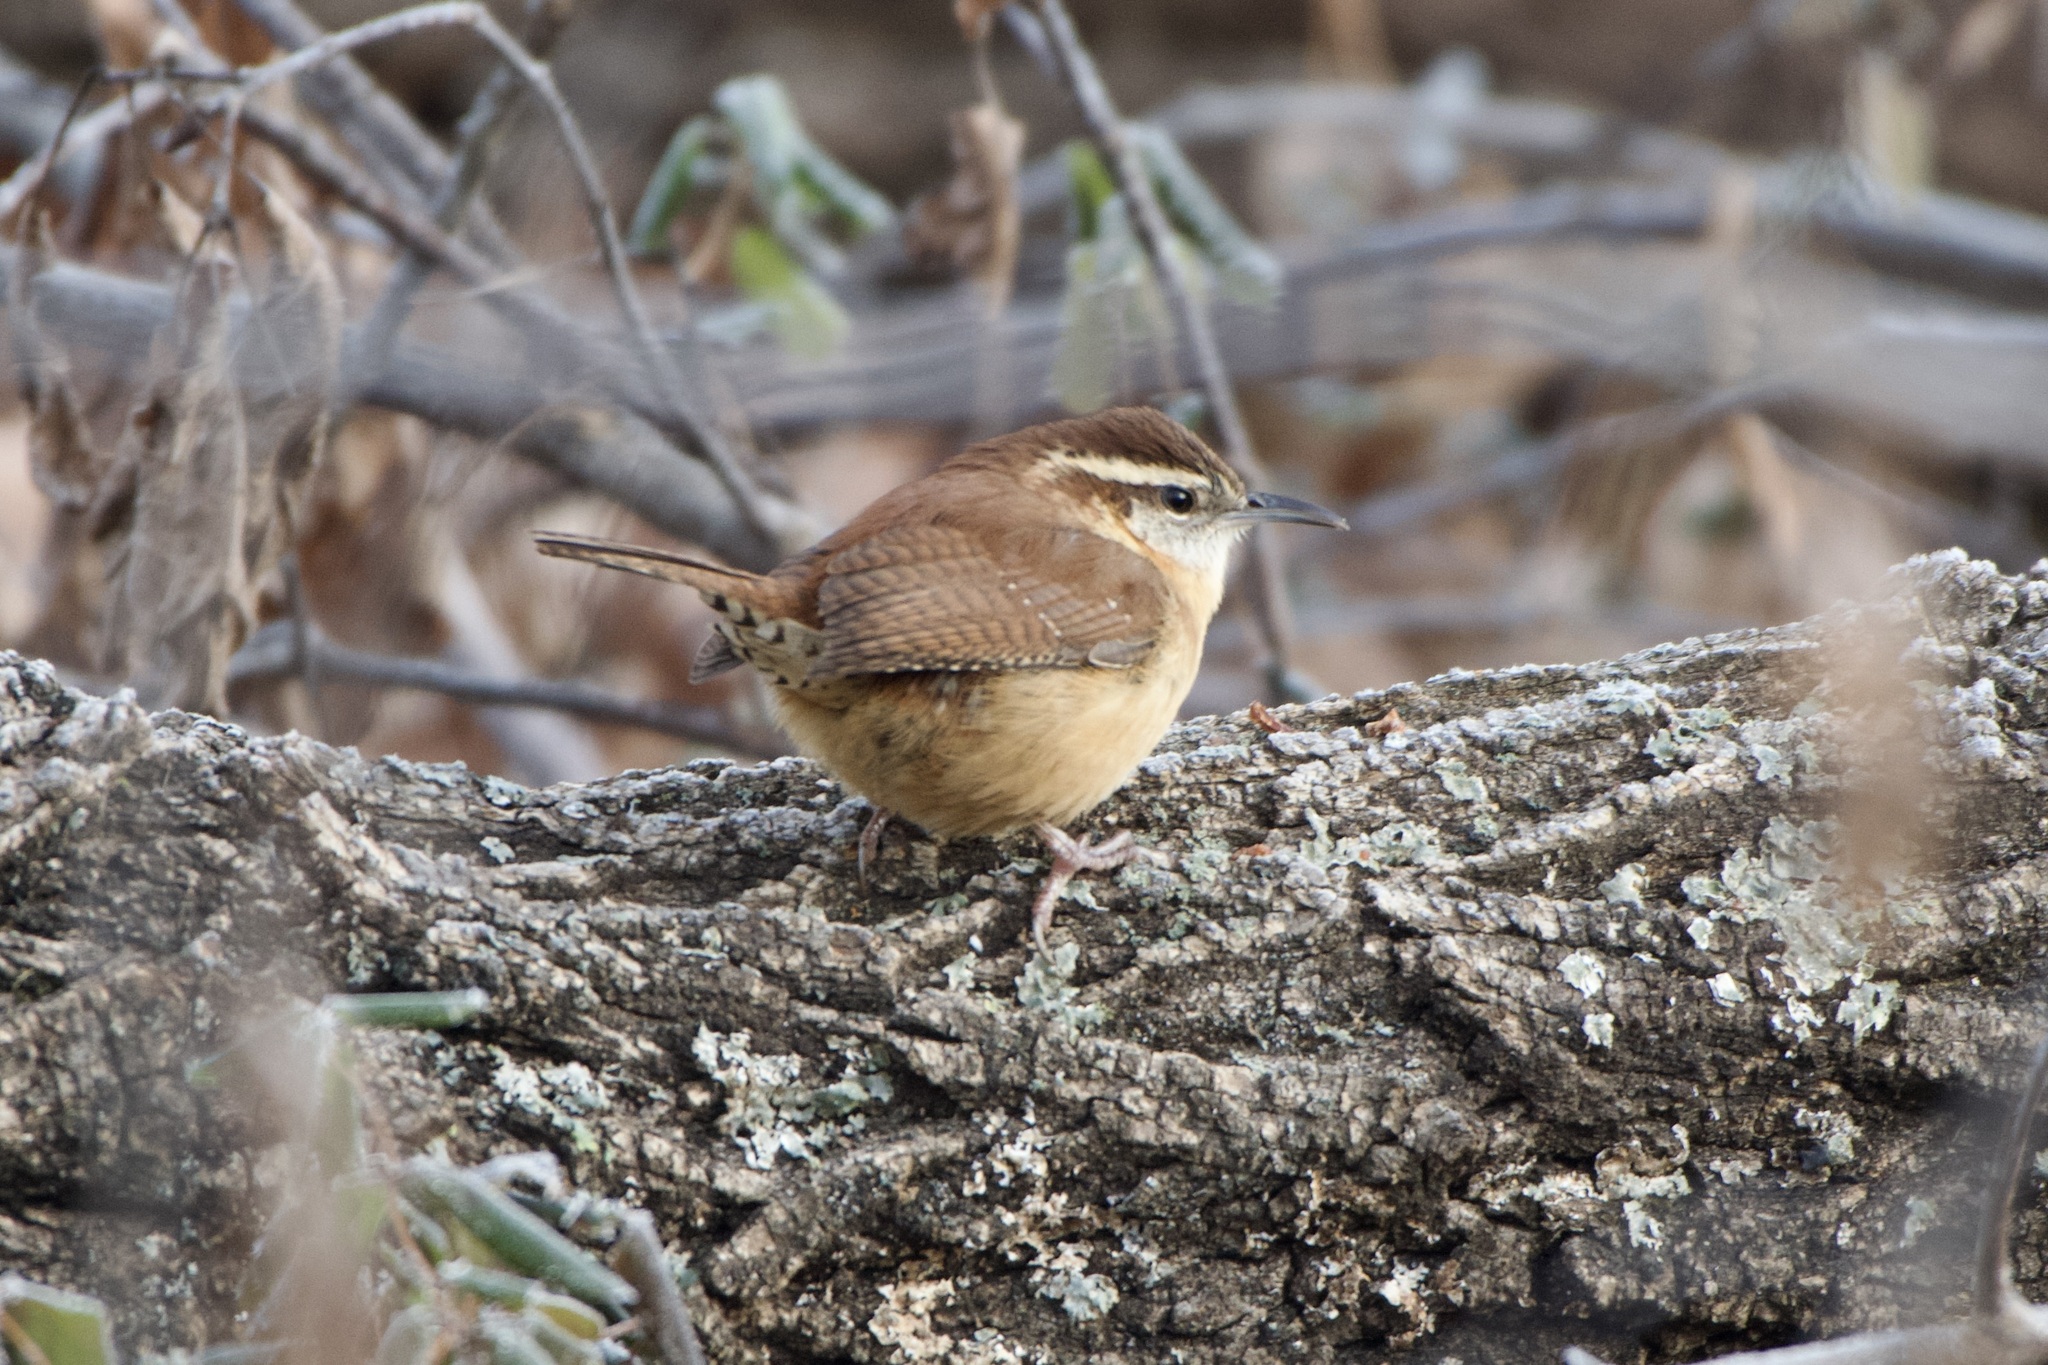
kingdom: Animalia
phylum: Chordata
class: Aves
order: Passeriformes
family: Troglodytidae
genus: Thryothorus
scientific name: Thryothorus ludovicianus
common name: Carolina wren
